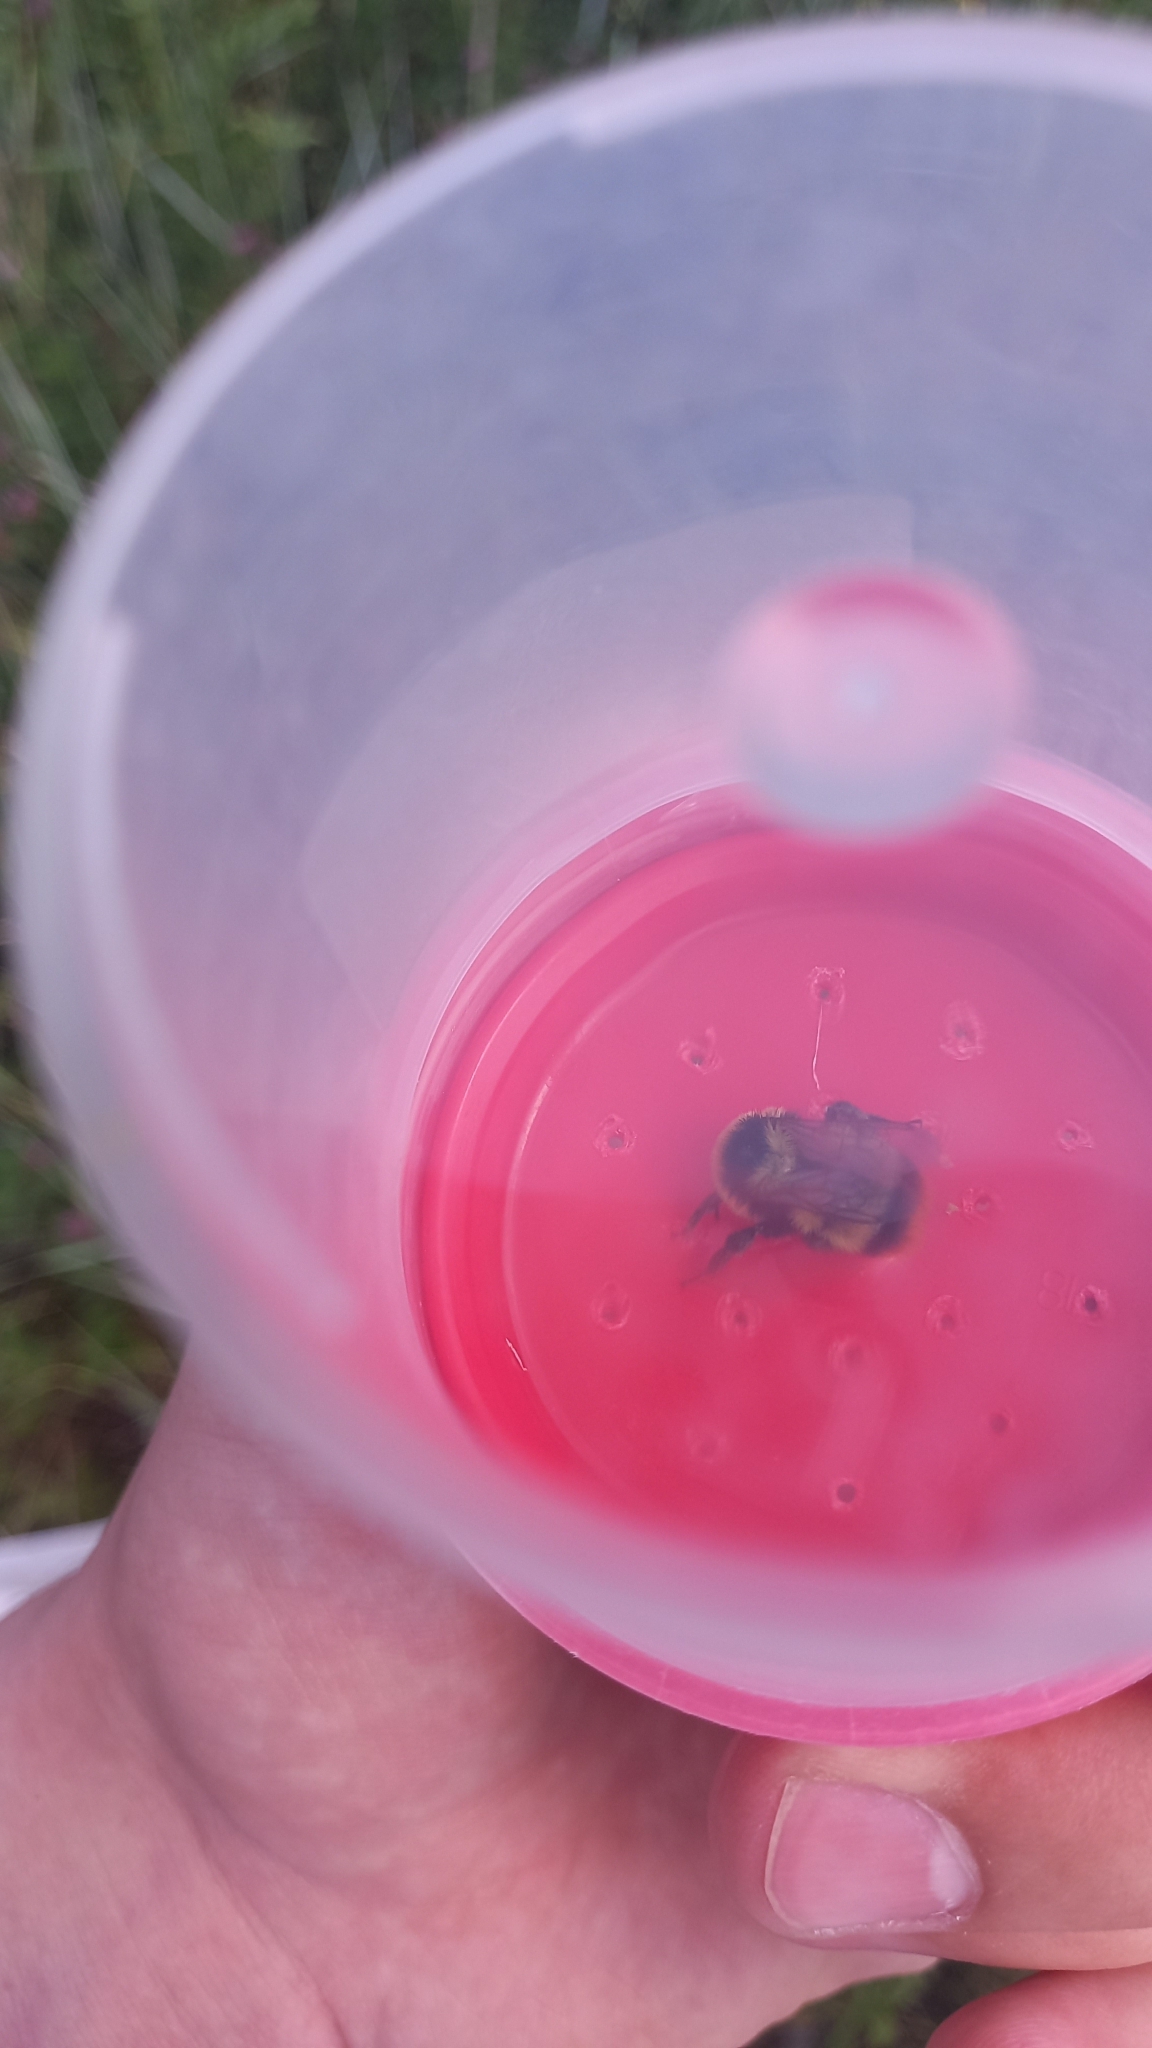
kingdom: Animalia
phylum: Arthropoda
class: Insecta
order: Hymenoptera
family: Apidae
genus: Bombus
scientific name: Bombus cullumanus
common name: Cullum's bumblebee
